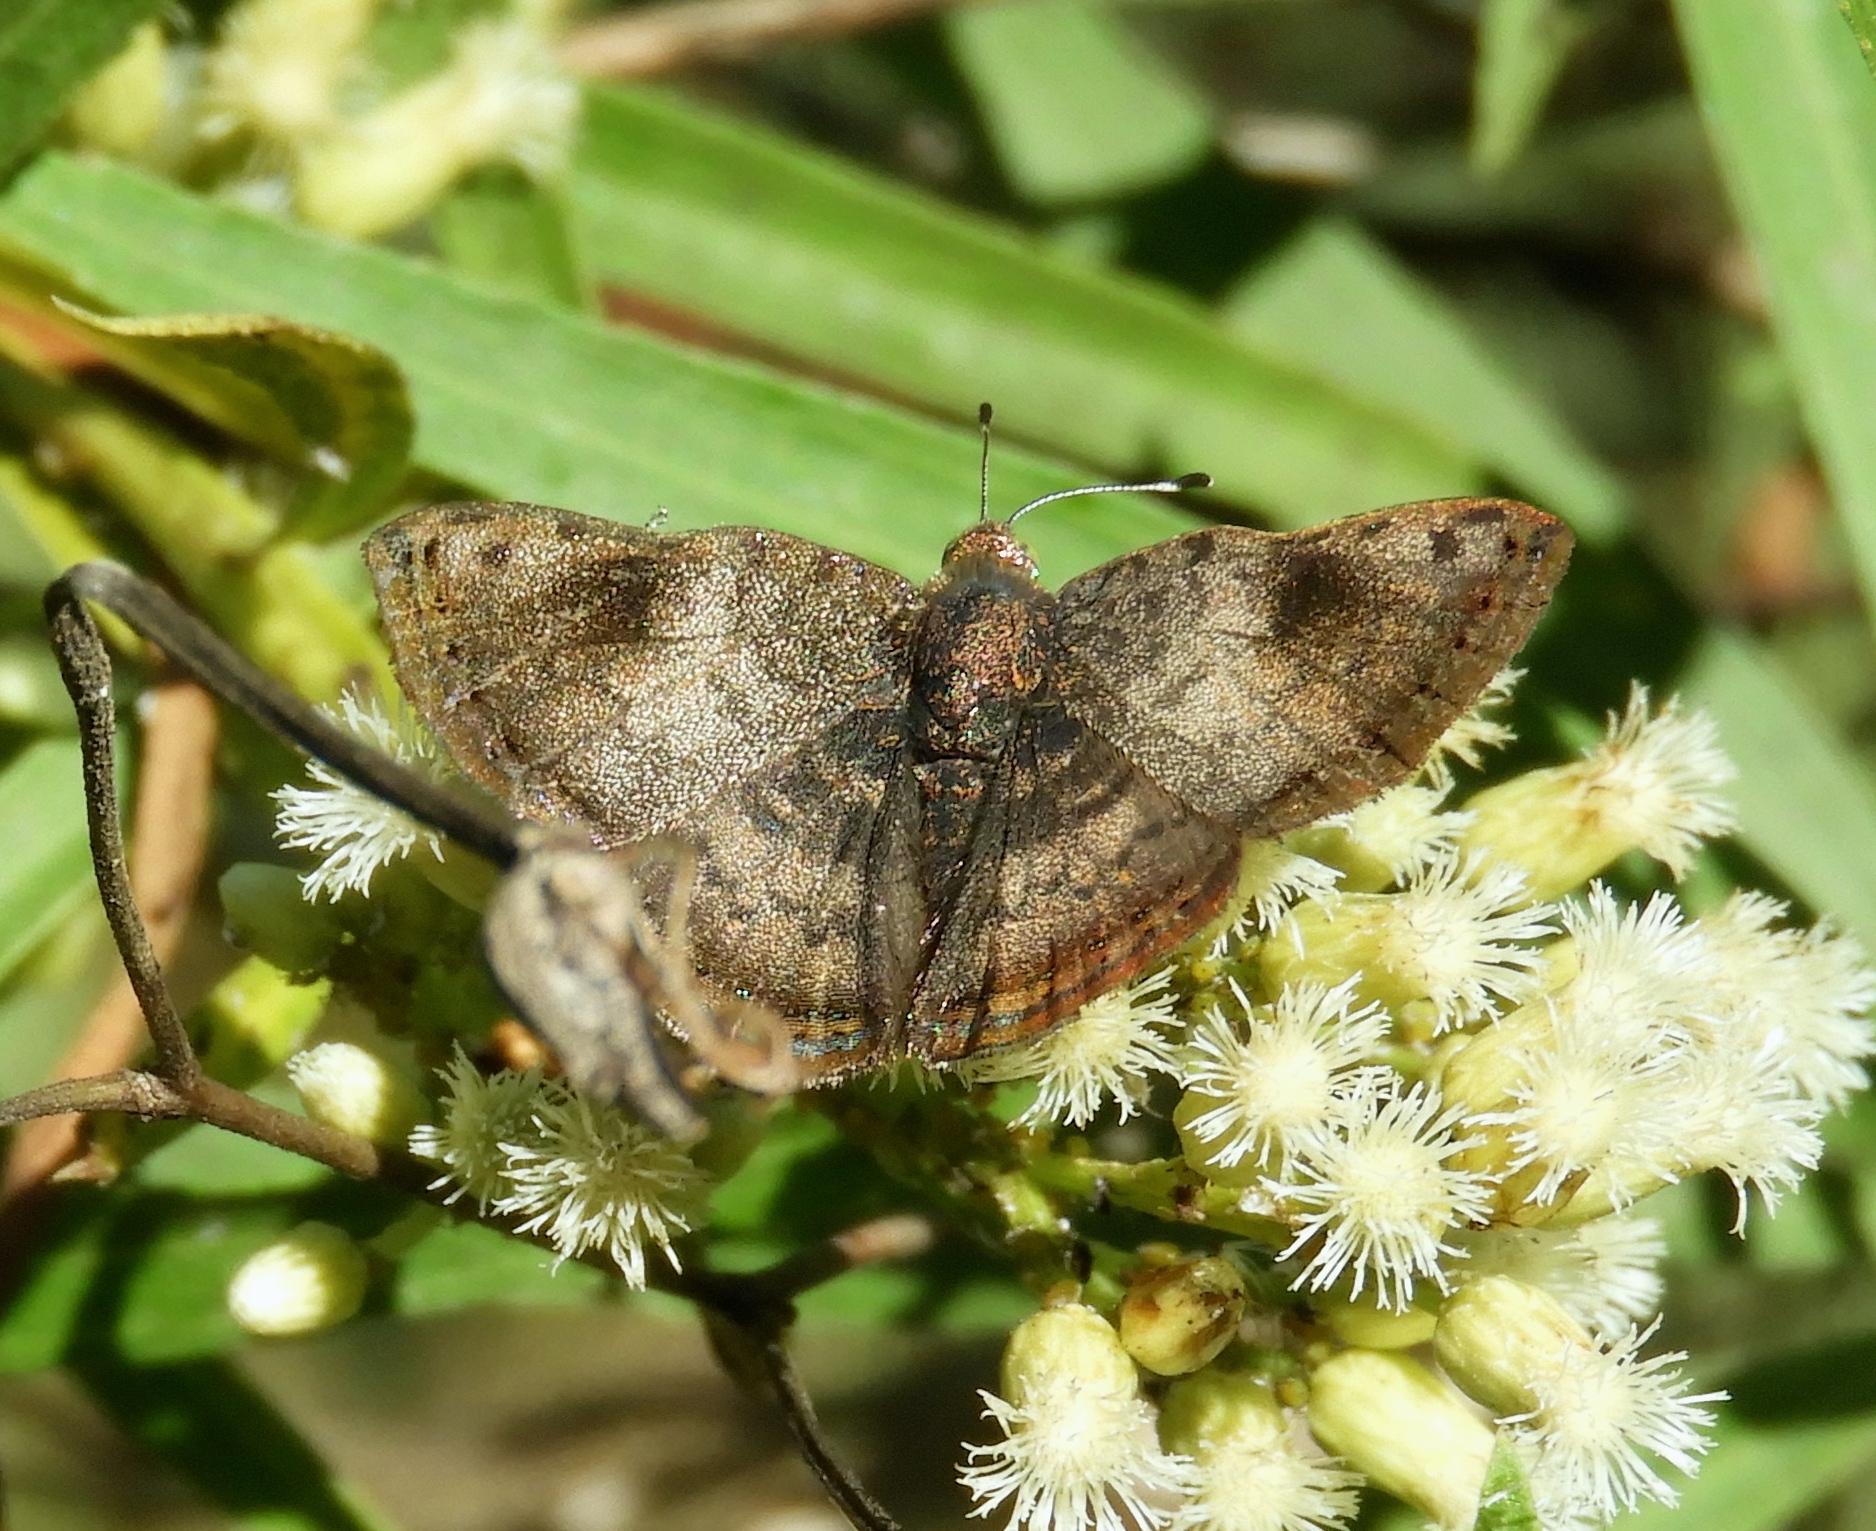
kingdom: Animalia
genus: Caria
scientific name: Caria ino
